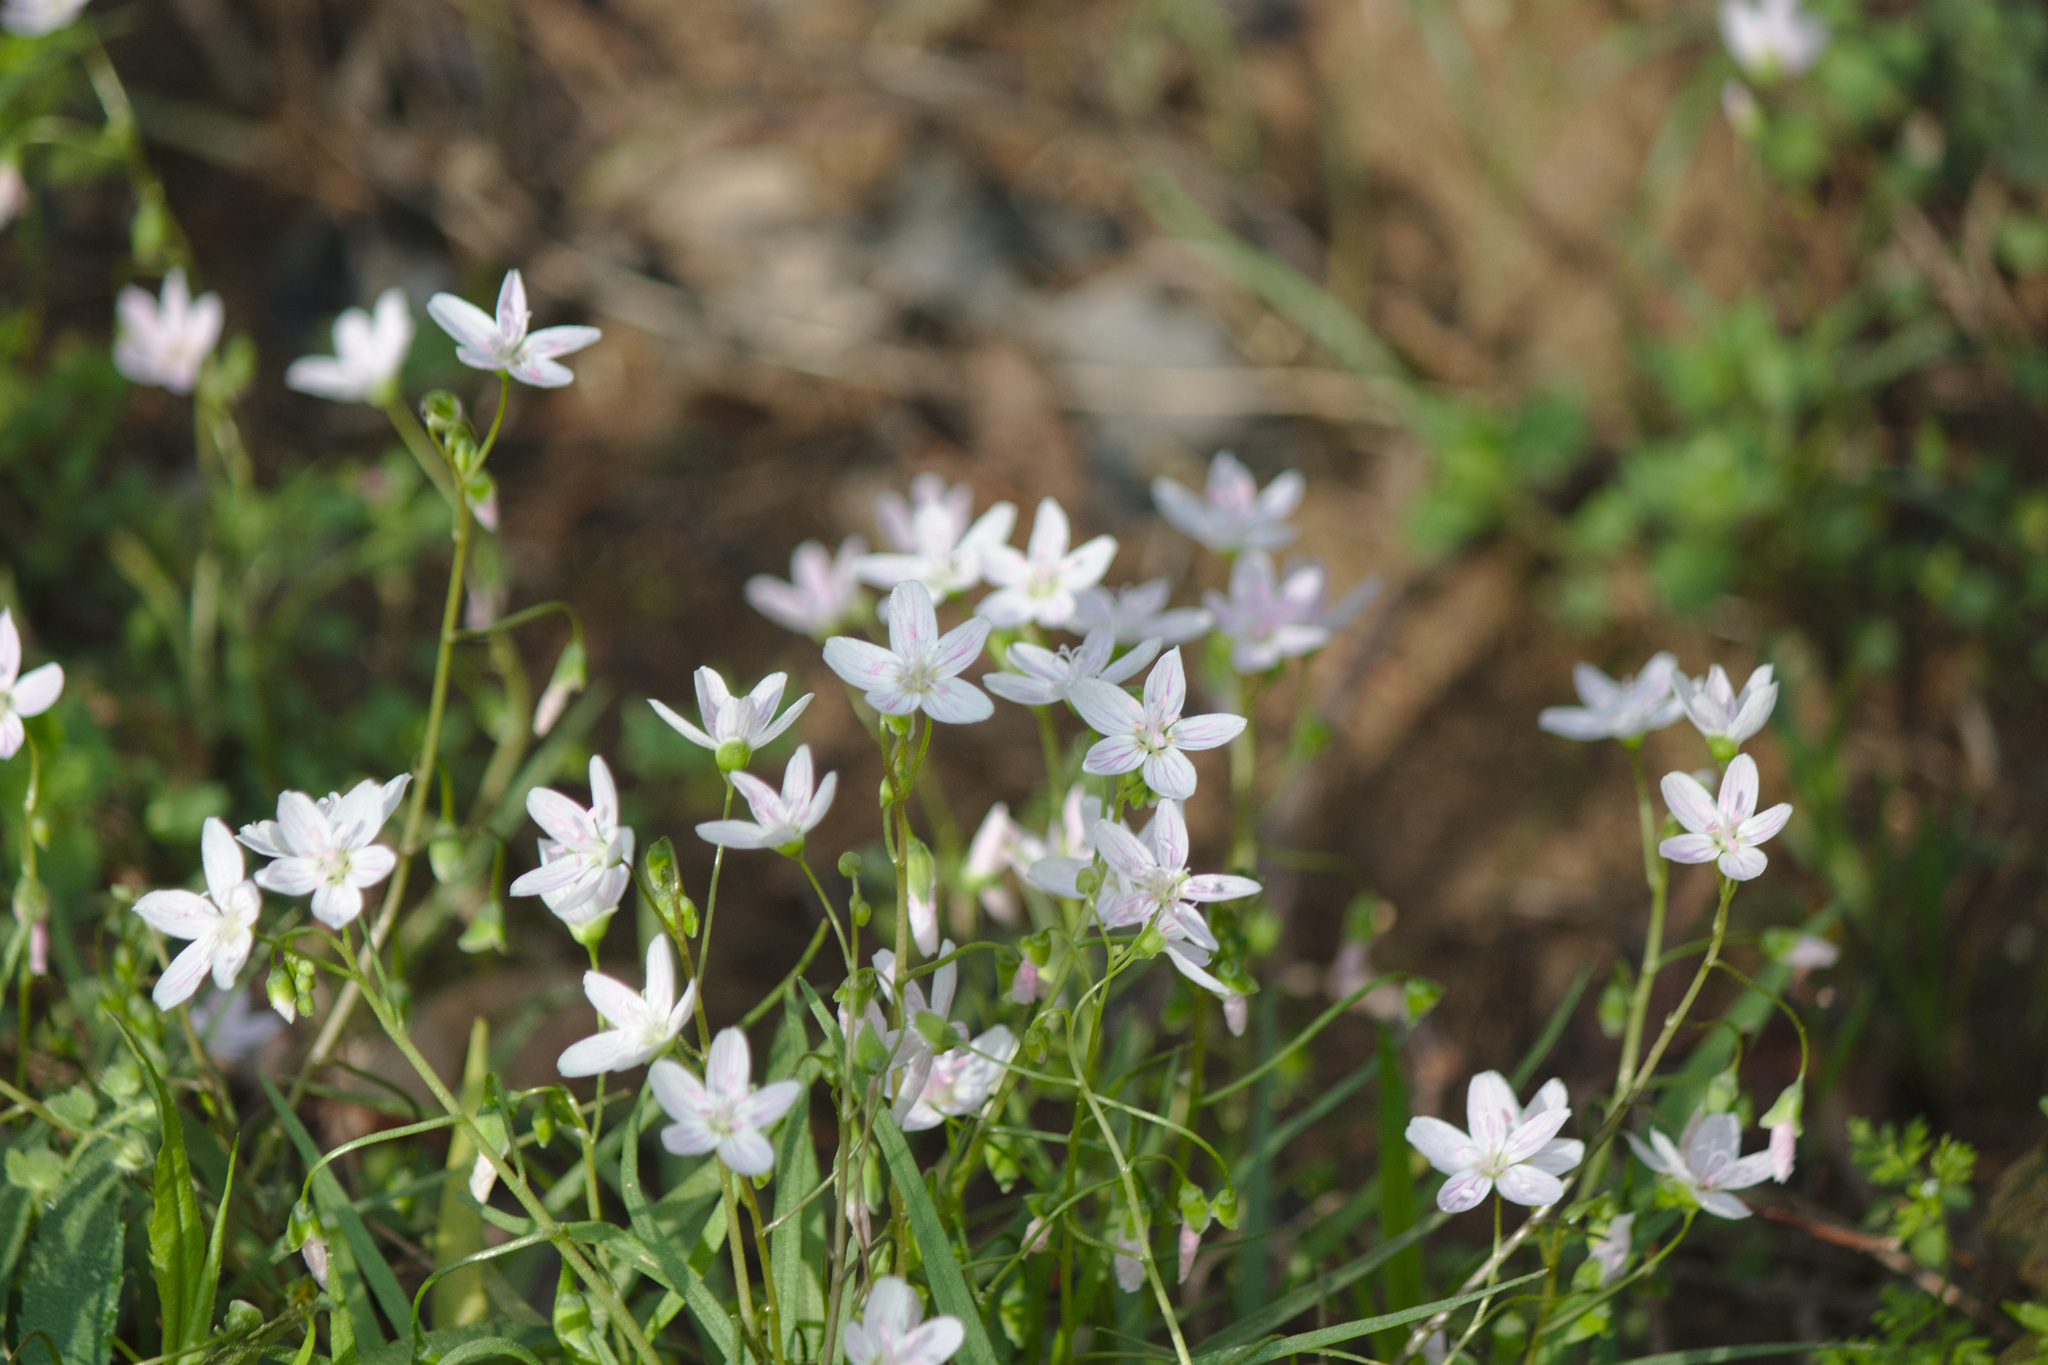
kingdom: Plantae
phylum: Tracheophyta
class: Magnoliopsida
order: Caryophyllales
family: Montiaceae
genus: Claytonia
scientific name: Claytonia virginica
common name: Virginia springbeauty
